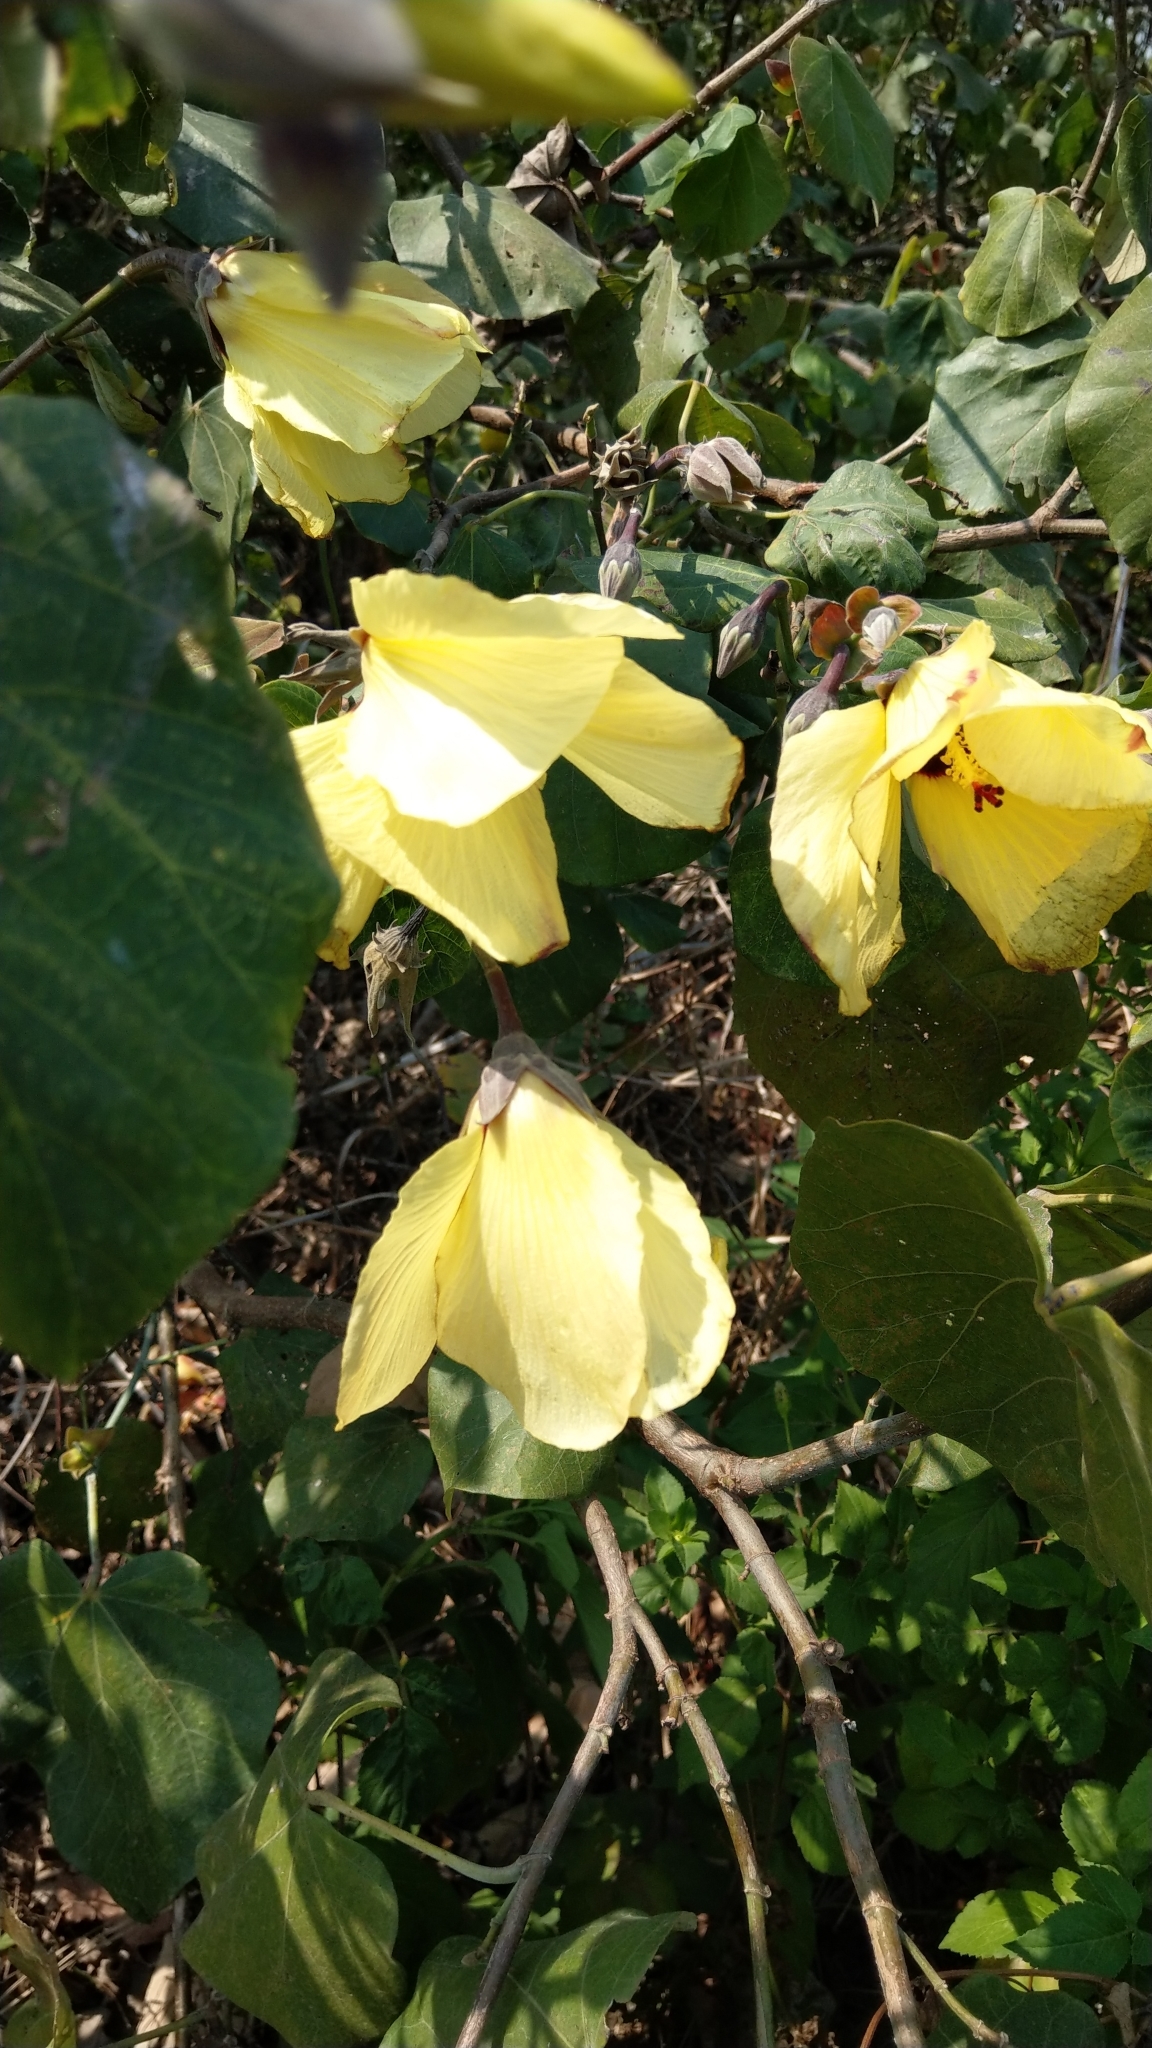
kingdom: Plantae
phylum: Tracheophyta
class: Magnoliopsida
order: Malvales
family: Malvaceae
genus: Talipariti
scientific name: Talipariti tiliaceum
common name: Sea hibiscus
